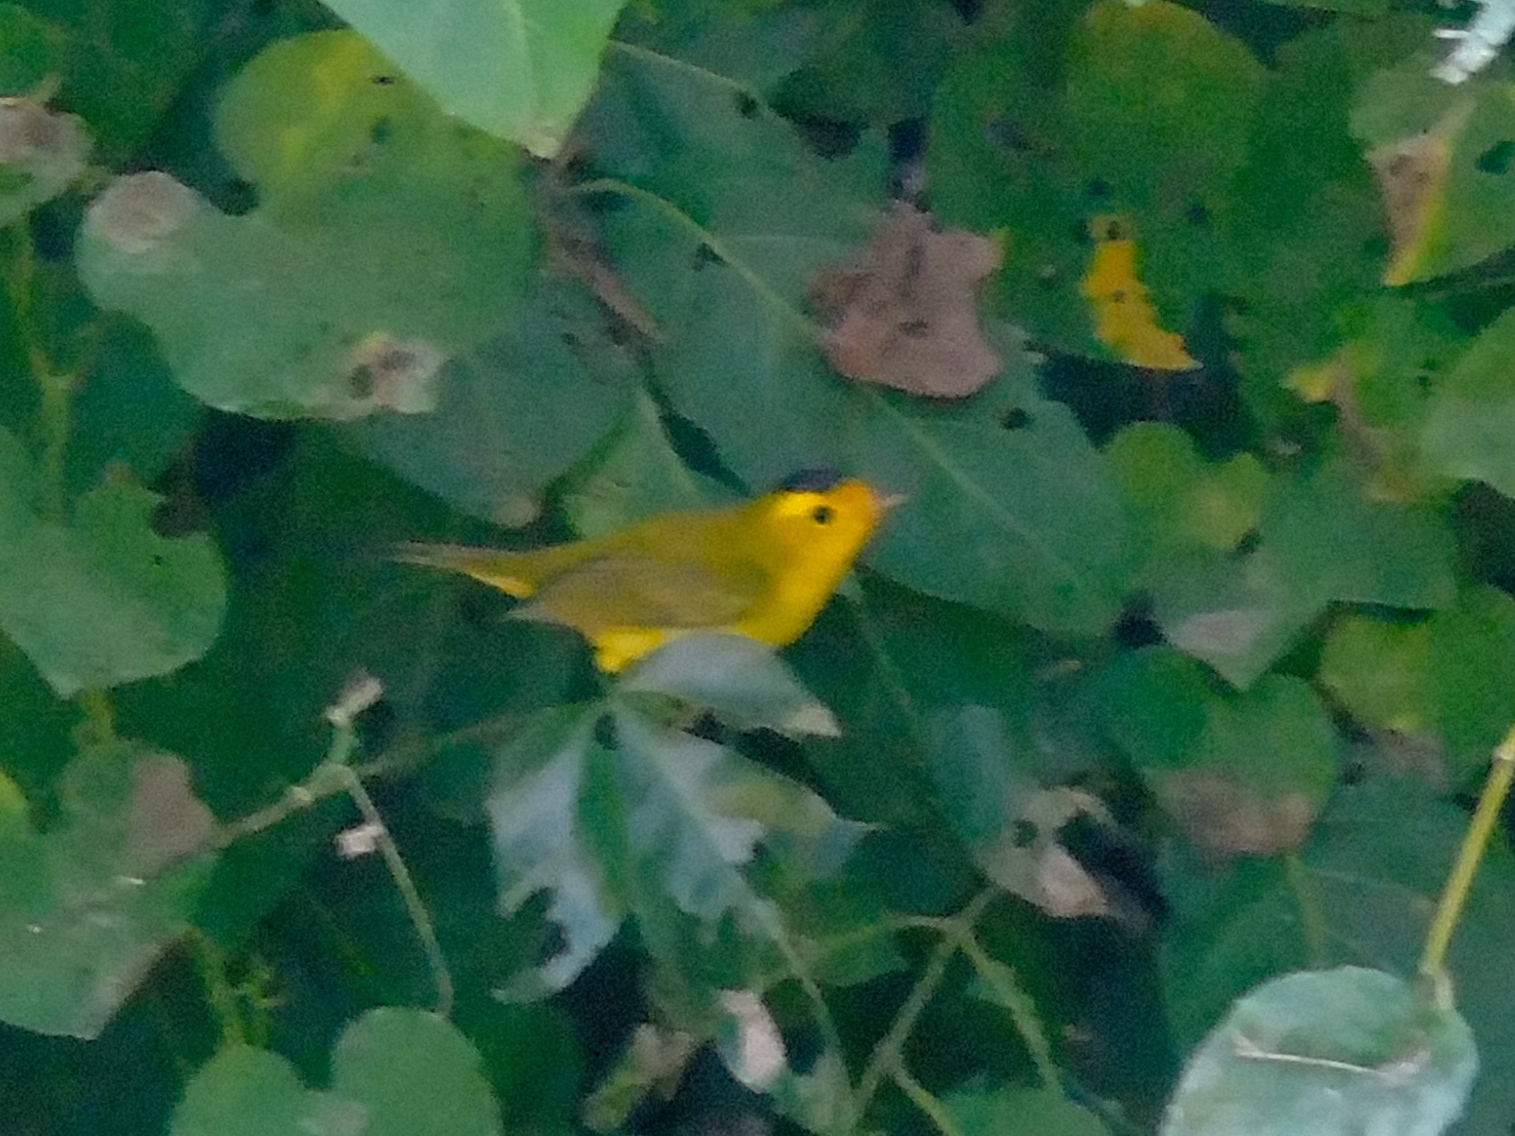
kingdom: Animalia
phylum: Chordata
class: Aves
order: Passeriformes
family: Parulidae
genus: Cardellina
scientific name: Cardellina pusilla
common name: Wilson's warbler
